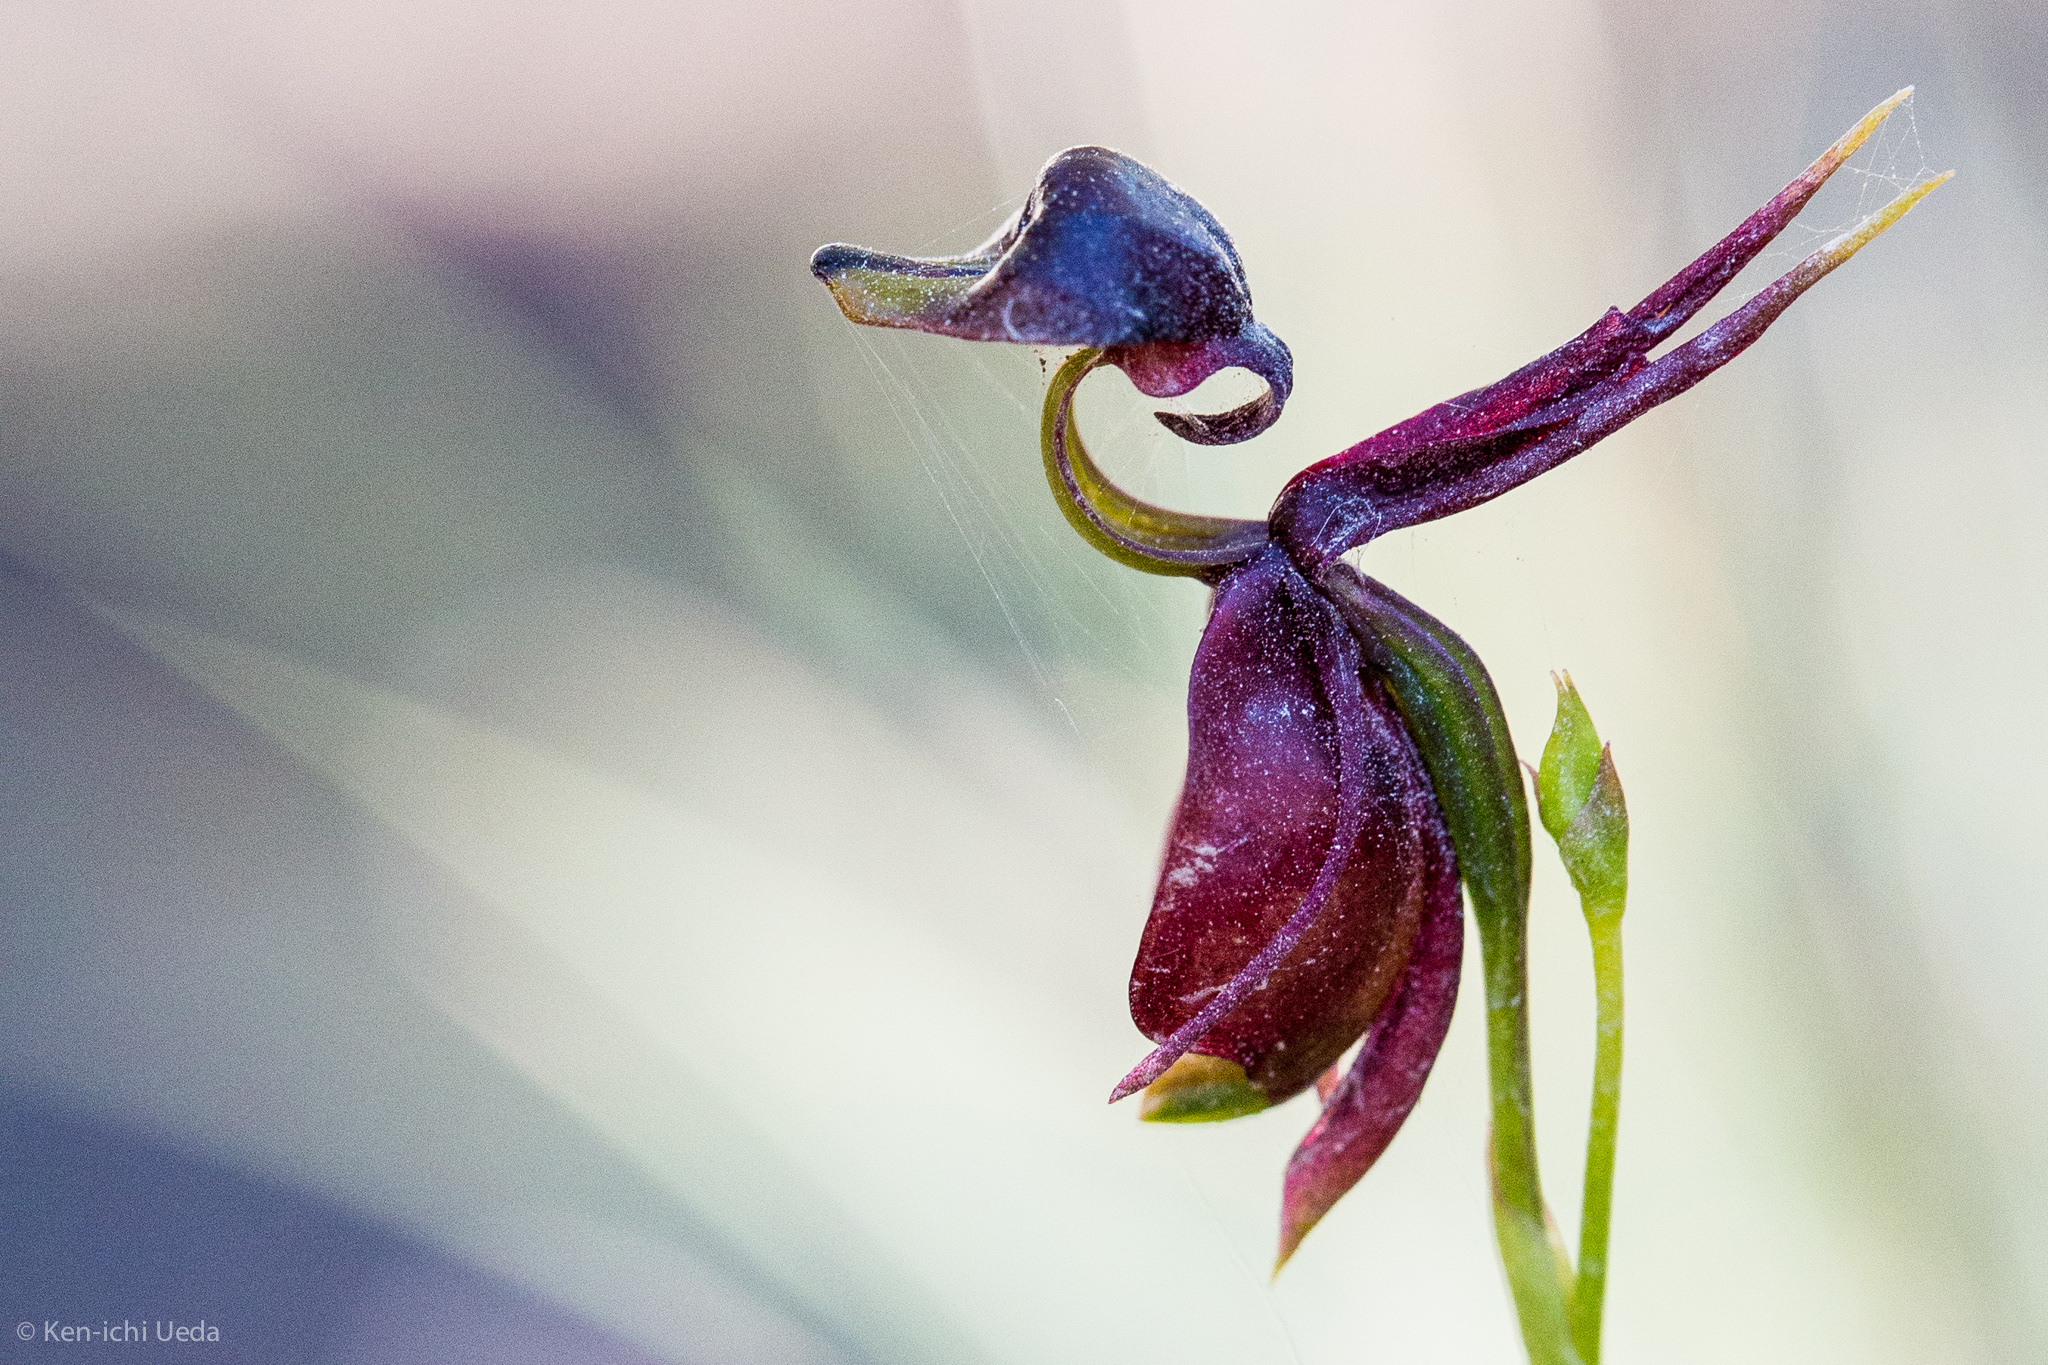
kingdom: Plantae
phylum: Tracheophyta
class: Liliopsida
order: Asparagales
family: Orchidaceae
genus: Caleana
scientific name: Caleana major
